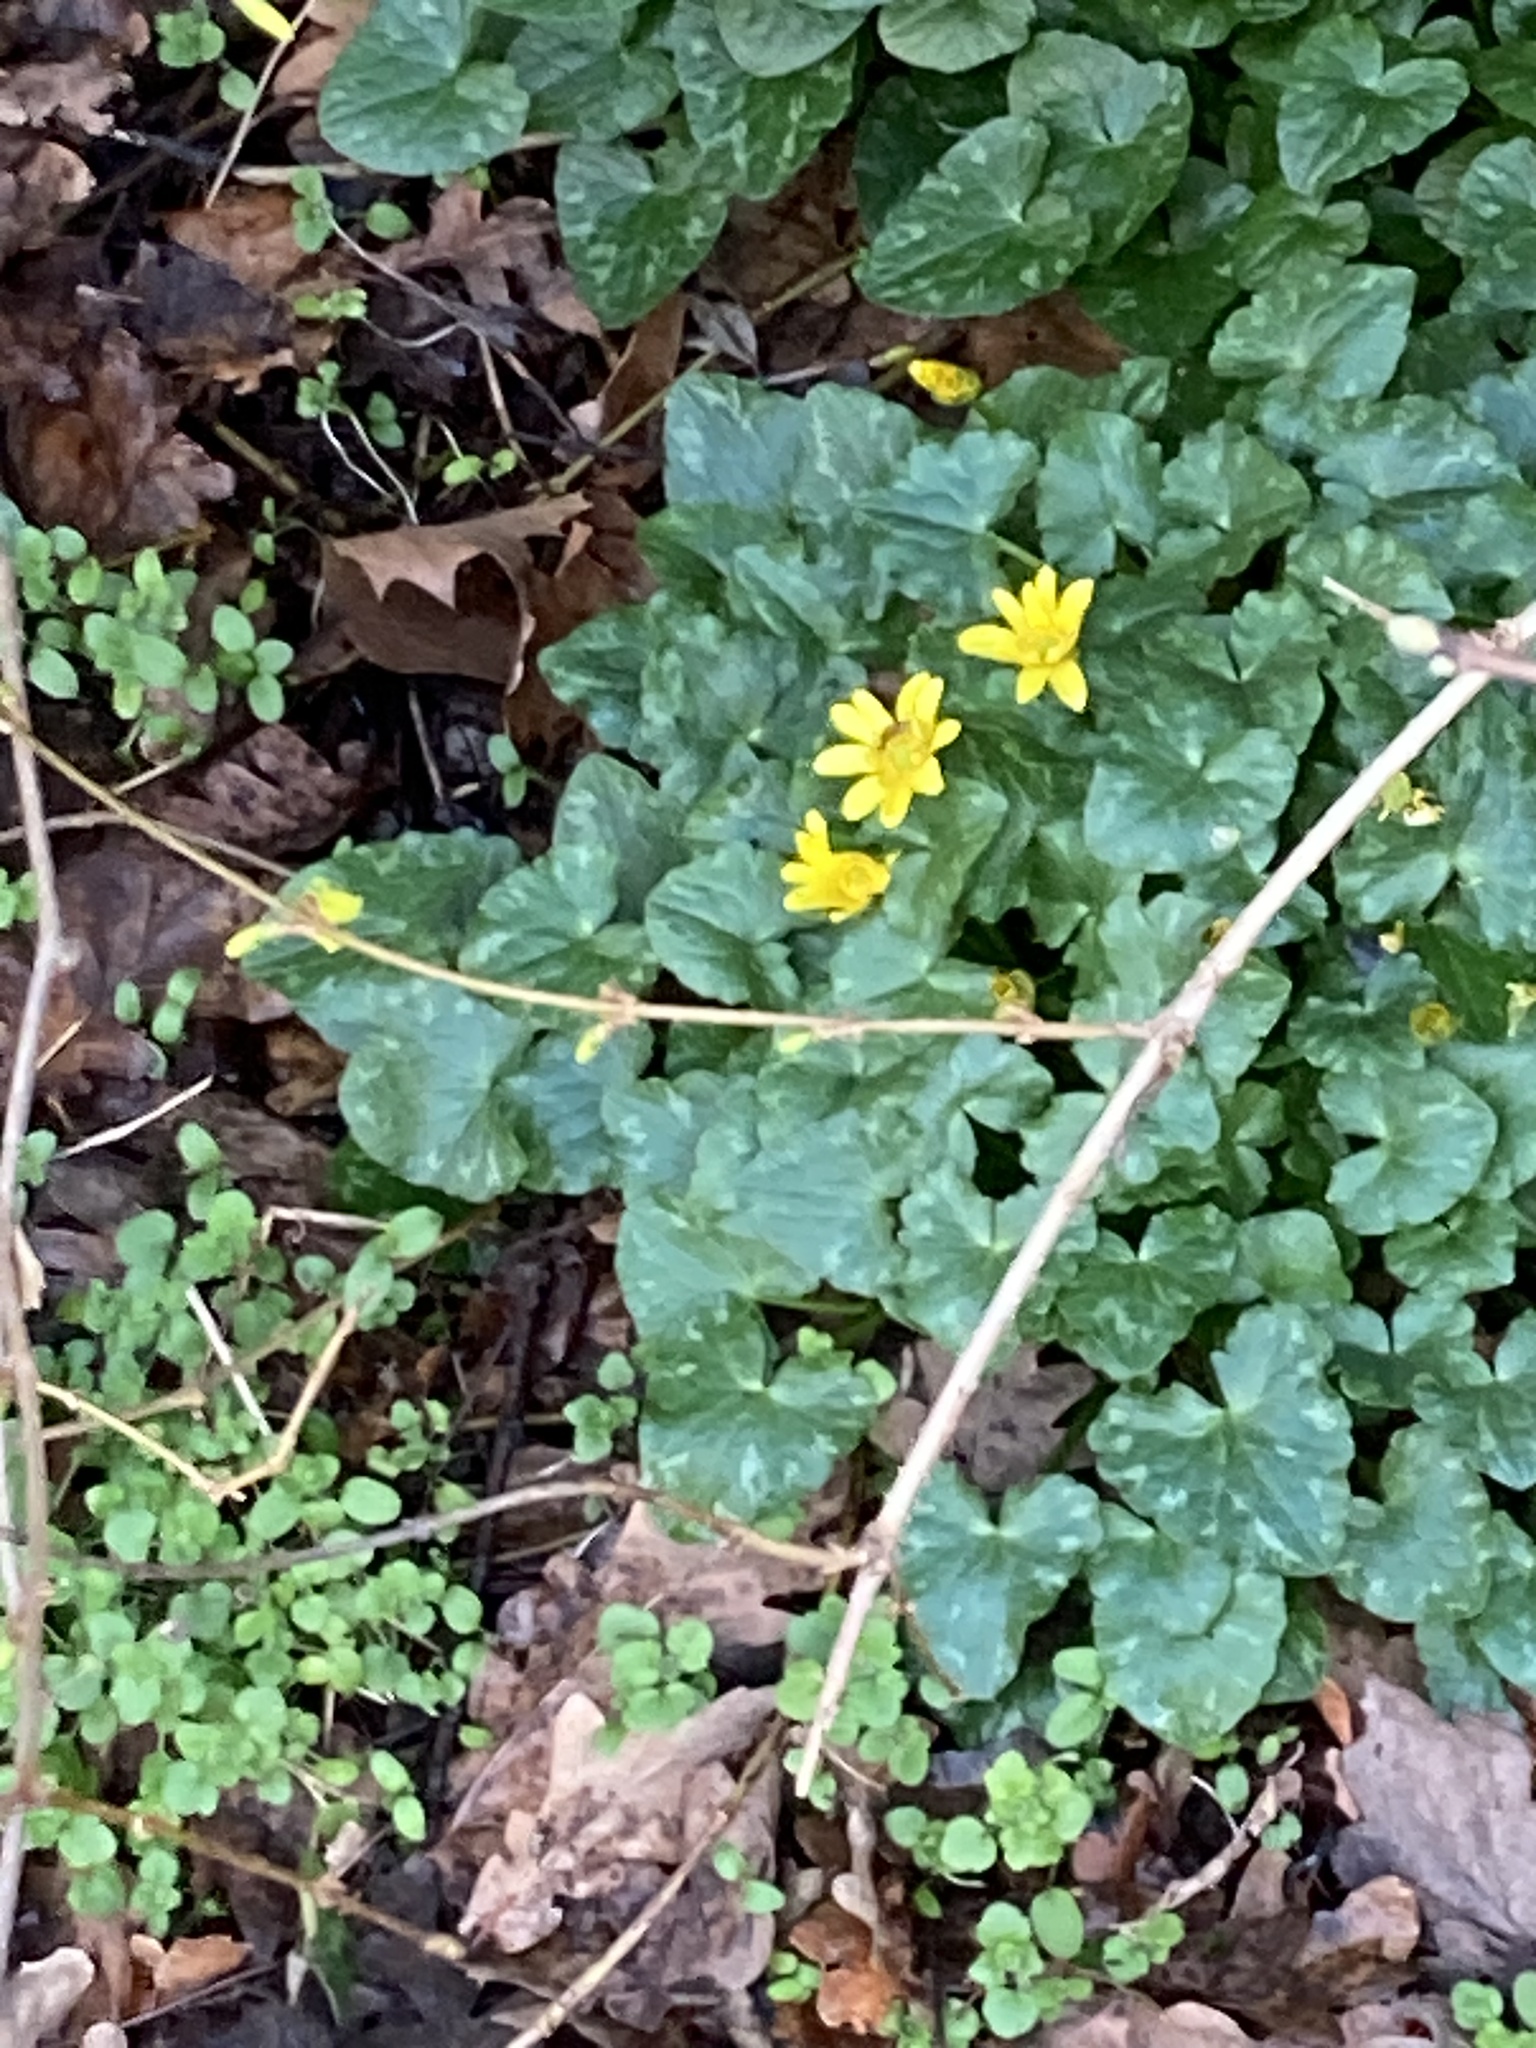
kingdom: Plantae
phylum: Tracheophyta
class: Magnoliopsida
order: Ranunculales
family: Ranunculaceae
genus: Ficaria
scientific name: Ficaria verna
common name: Lesser celandine
